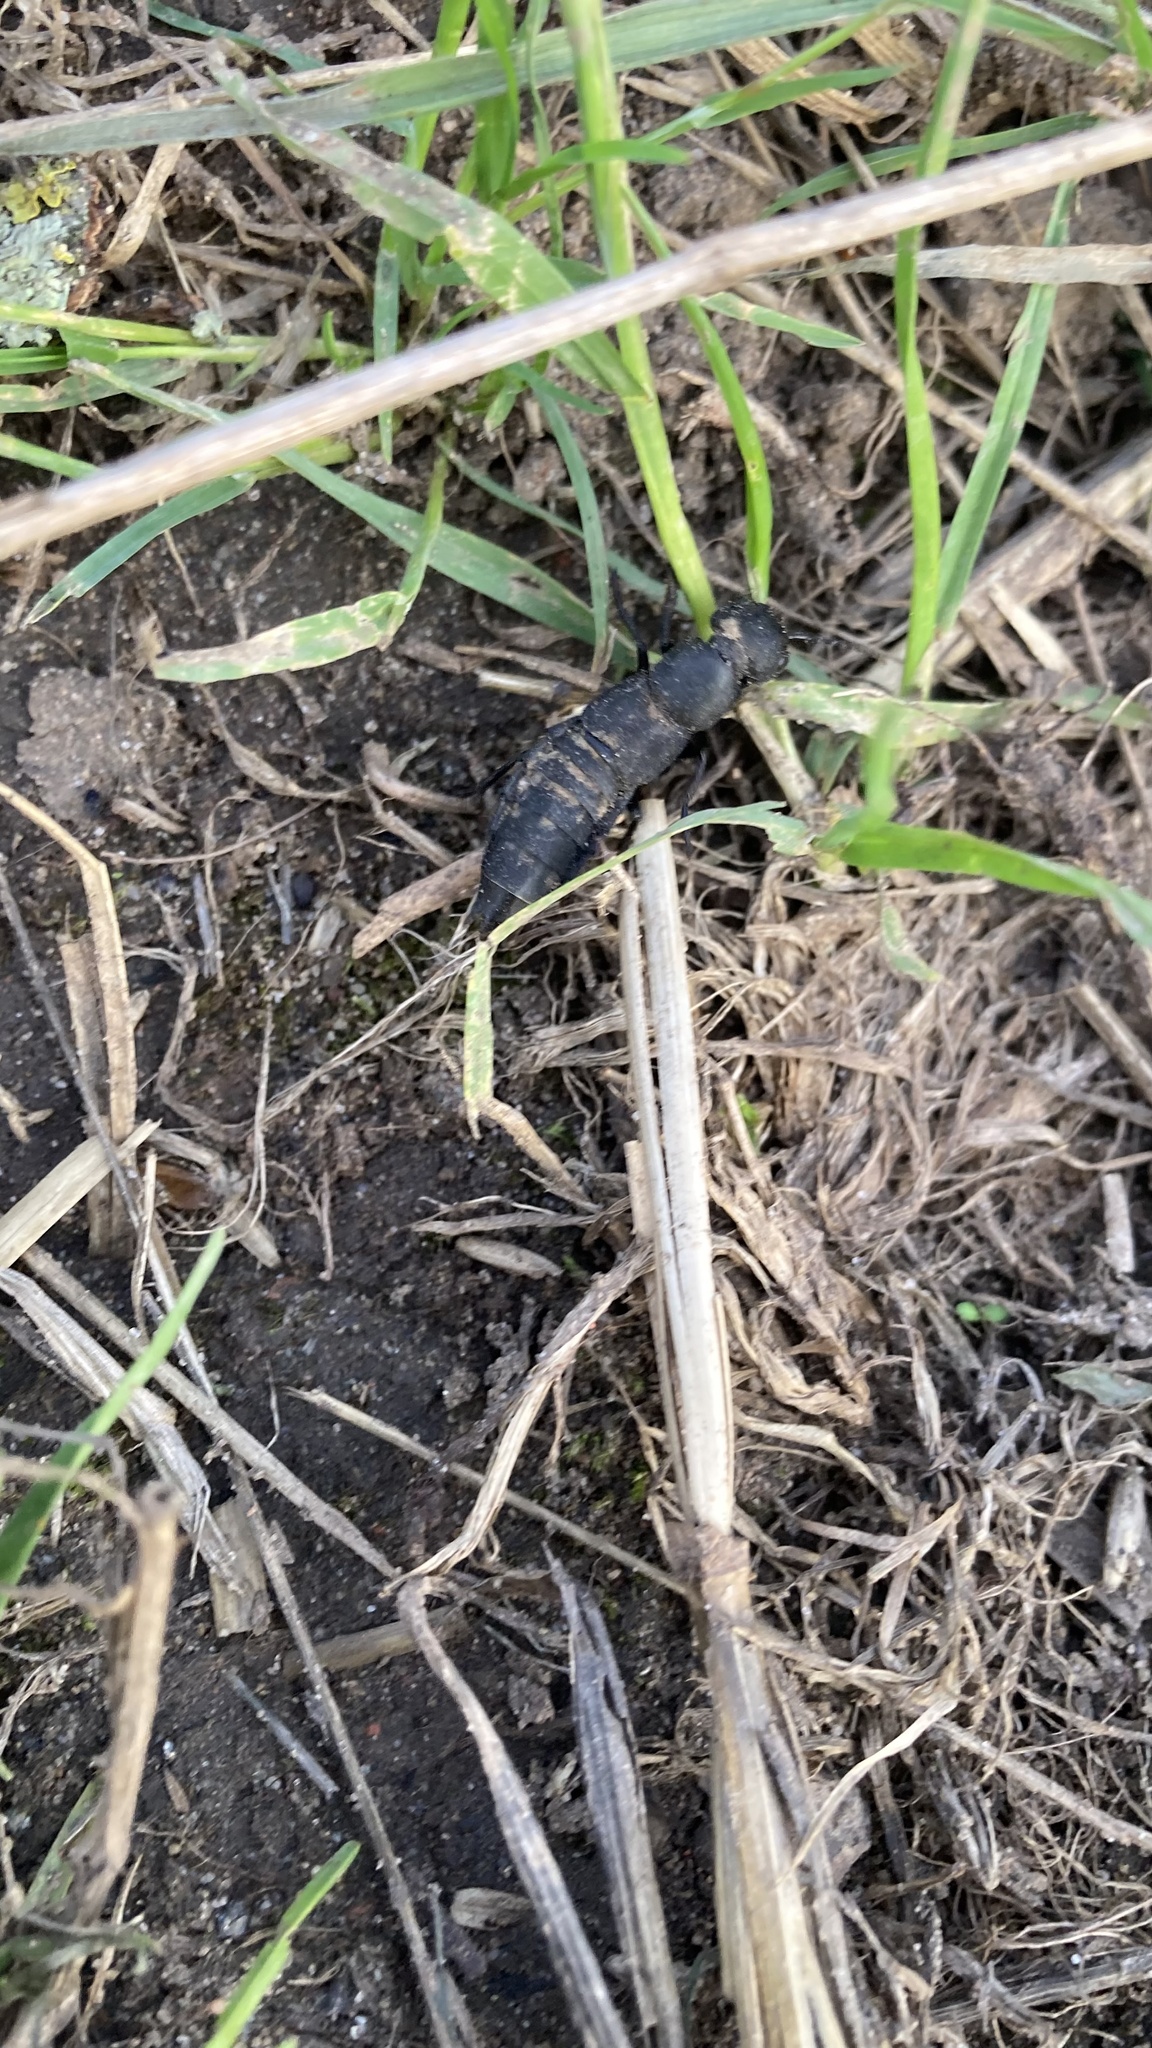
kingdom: Animalia
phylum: Arthropoda
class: Insecta
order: Coleoptera
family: Staphylinidae
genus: Ocypus
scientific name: Ocypus olens
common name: Devil's coach-horse
